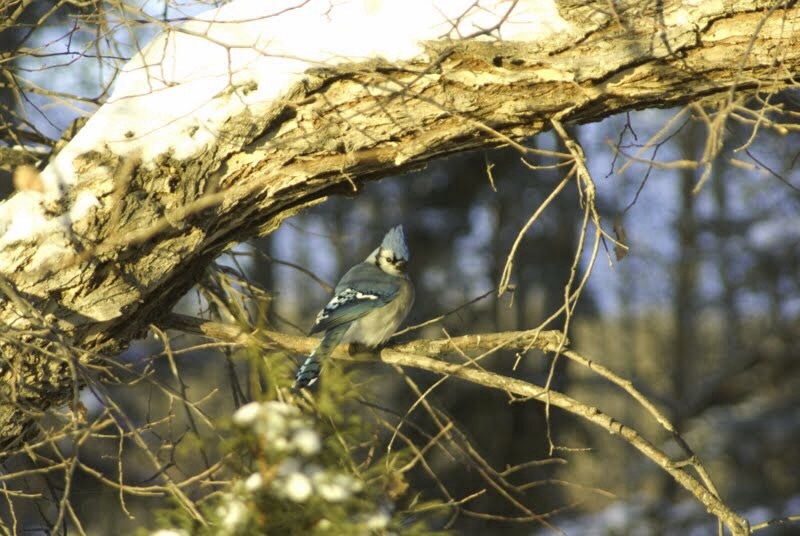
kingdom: Animalia
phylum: Chordata
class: Aves
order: Passeriformes
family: Corvidae
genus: Cyanocitta
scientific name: Cyanocitta cristata
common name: Blue jay
